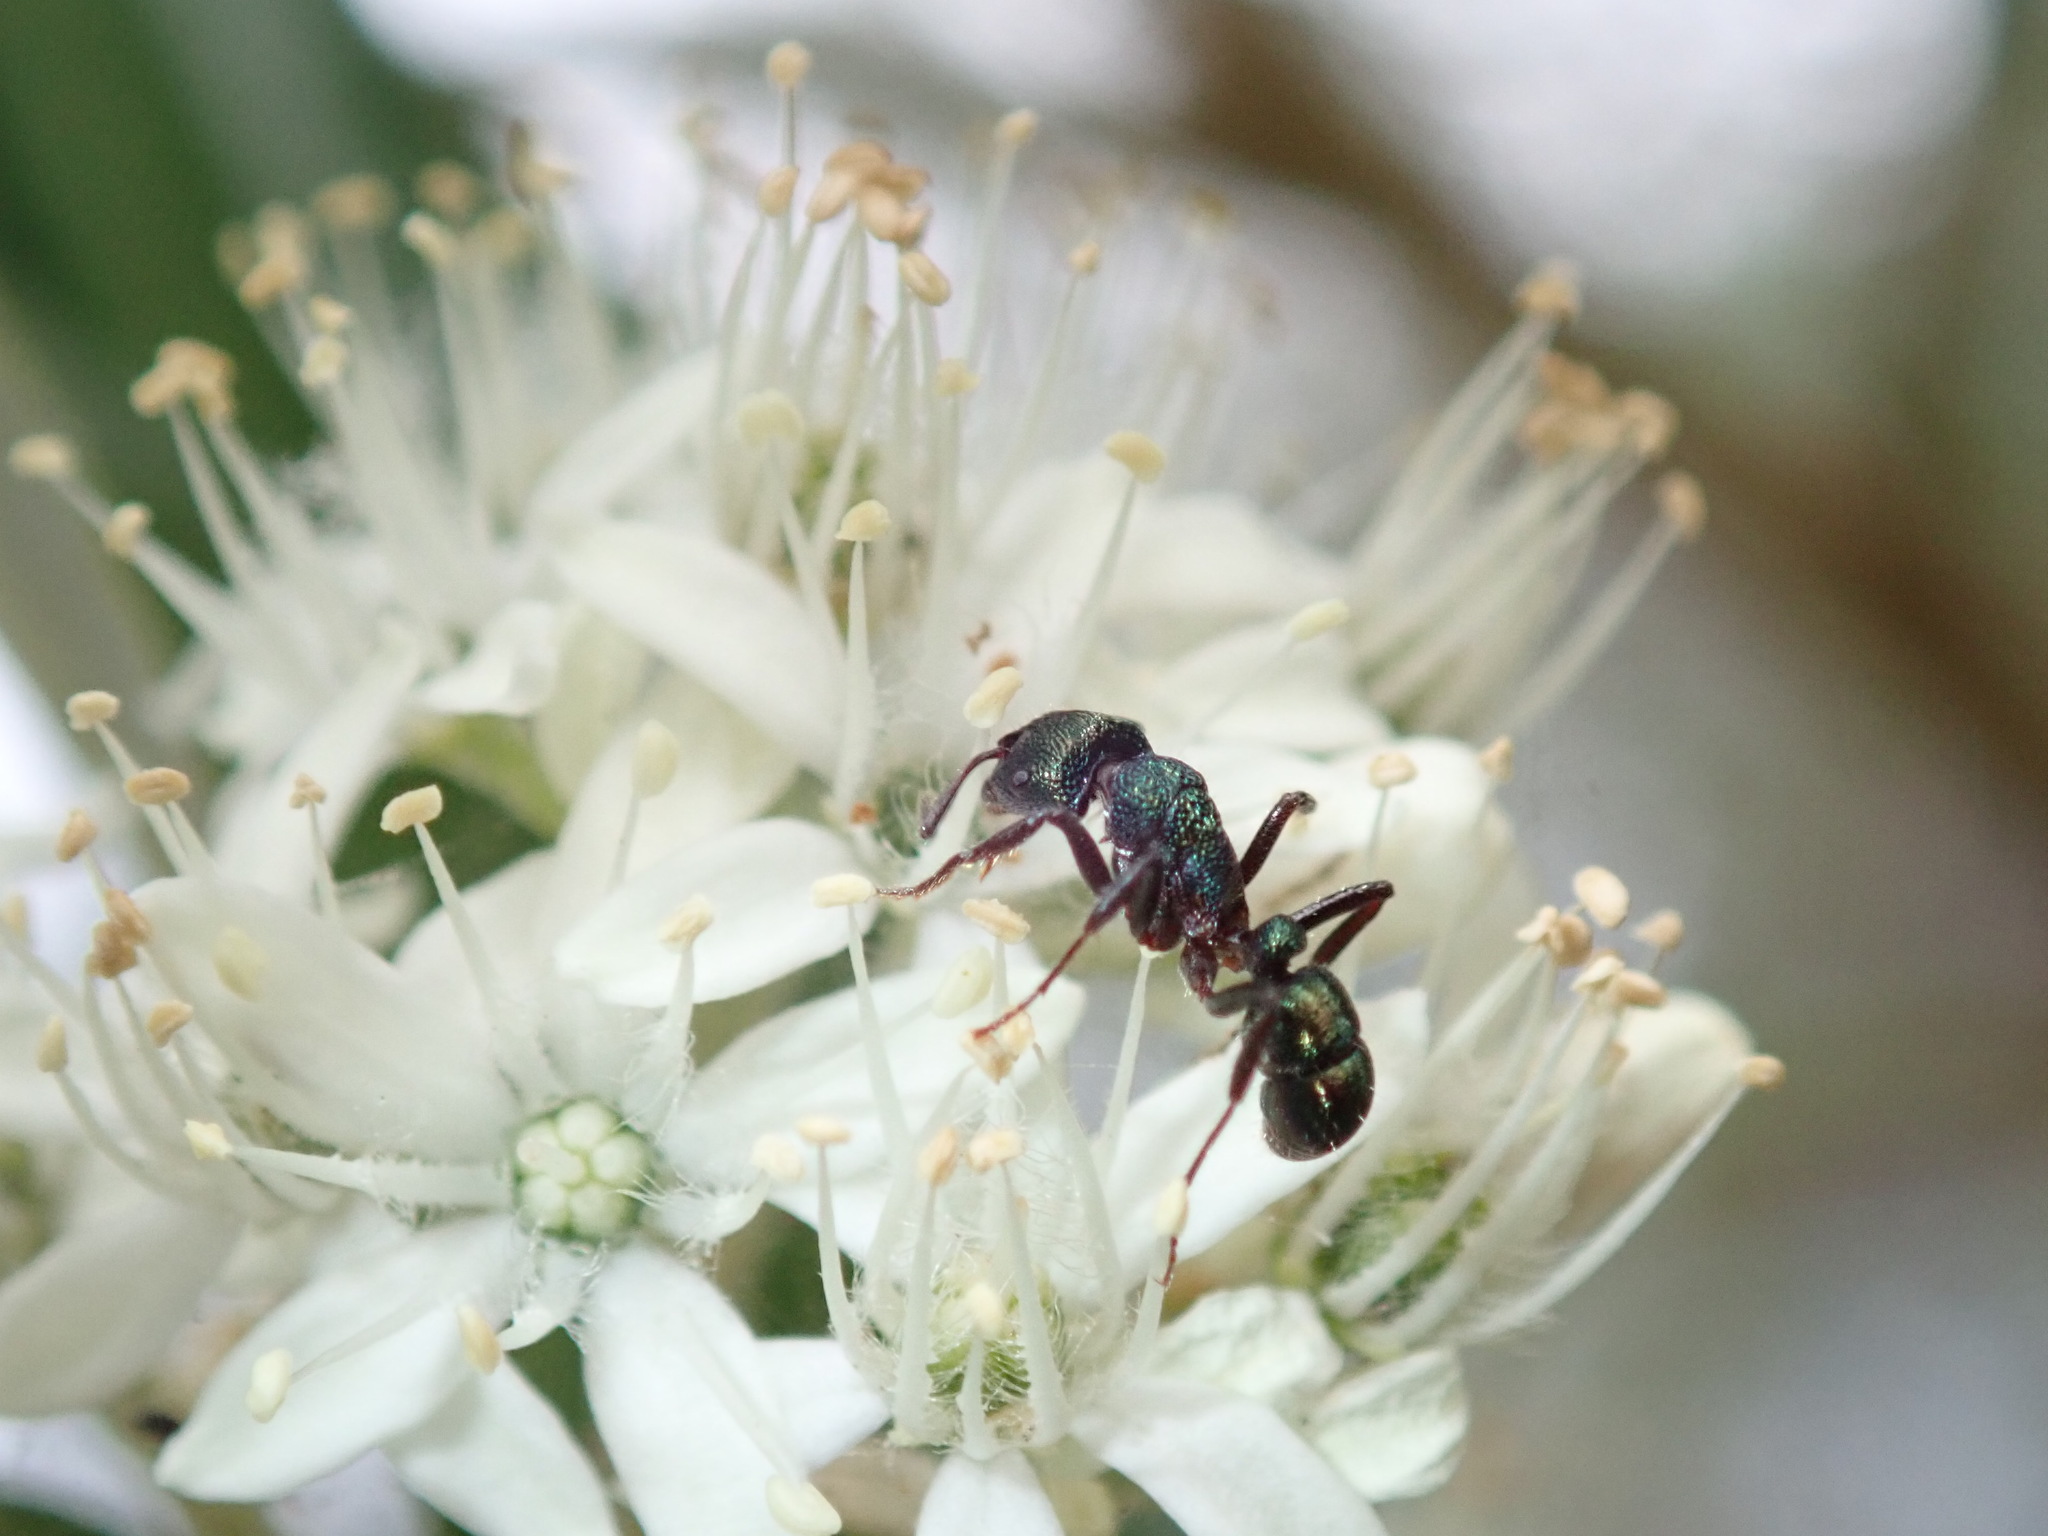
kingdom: Animalia
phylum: Arthropoda
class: Insecta
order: Hymenoptera
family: Formicidae
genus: Rhytidoponera
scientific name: Rhytidoponera metallica
